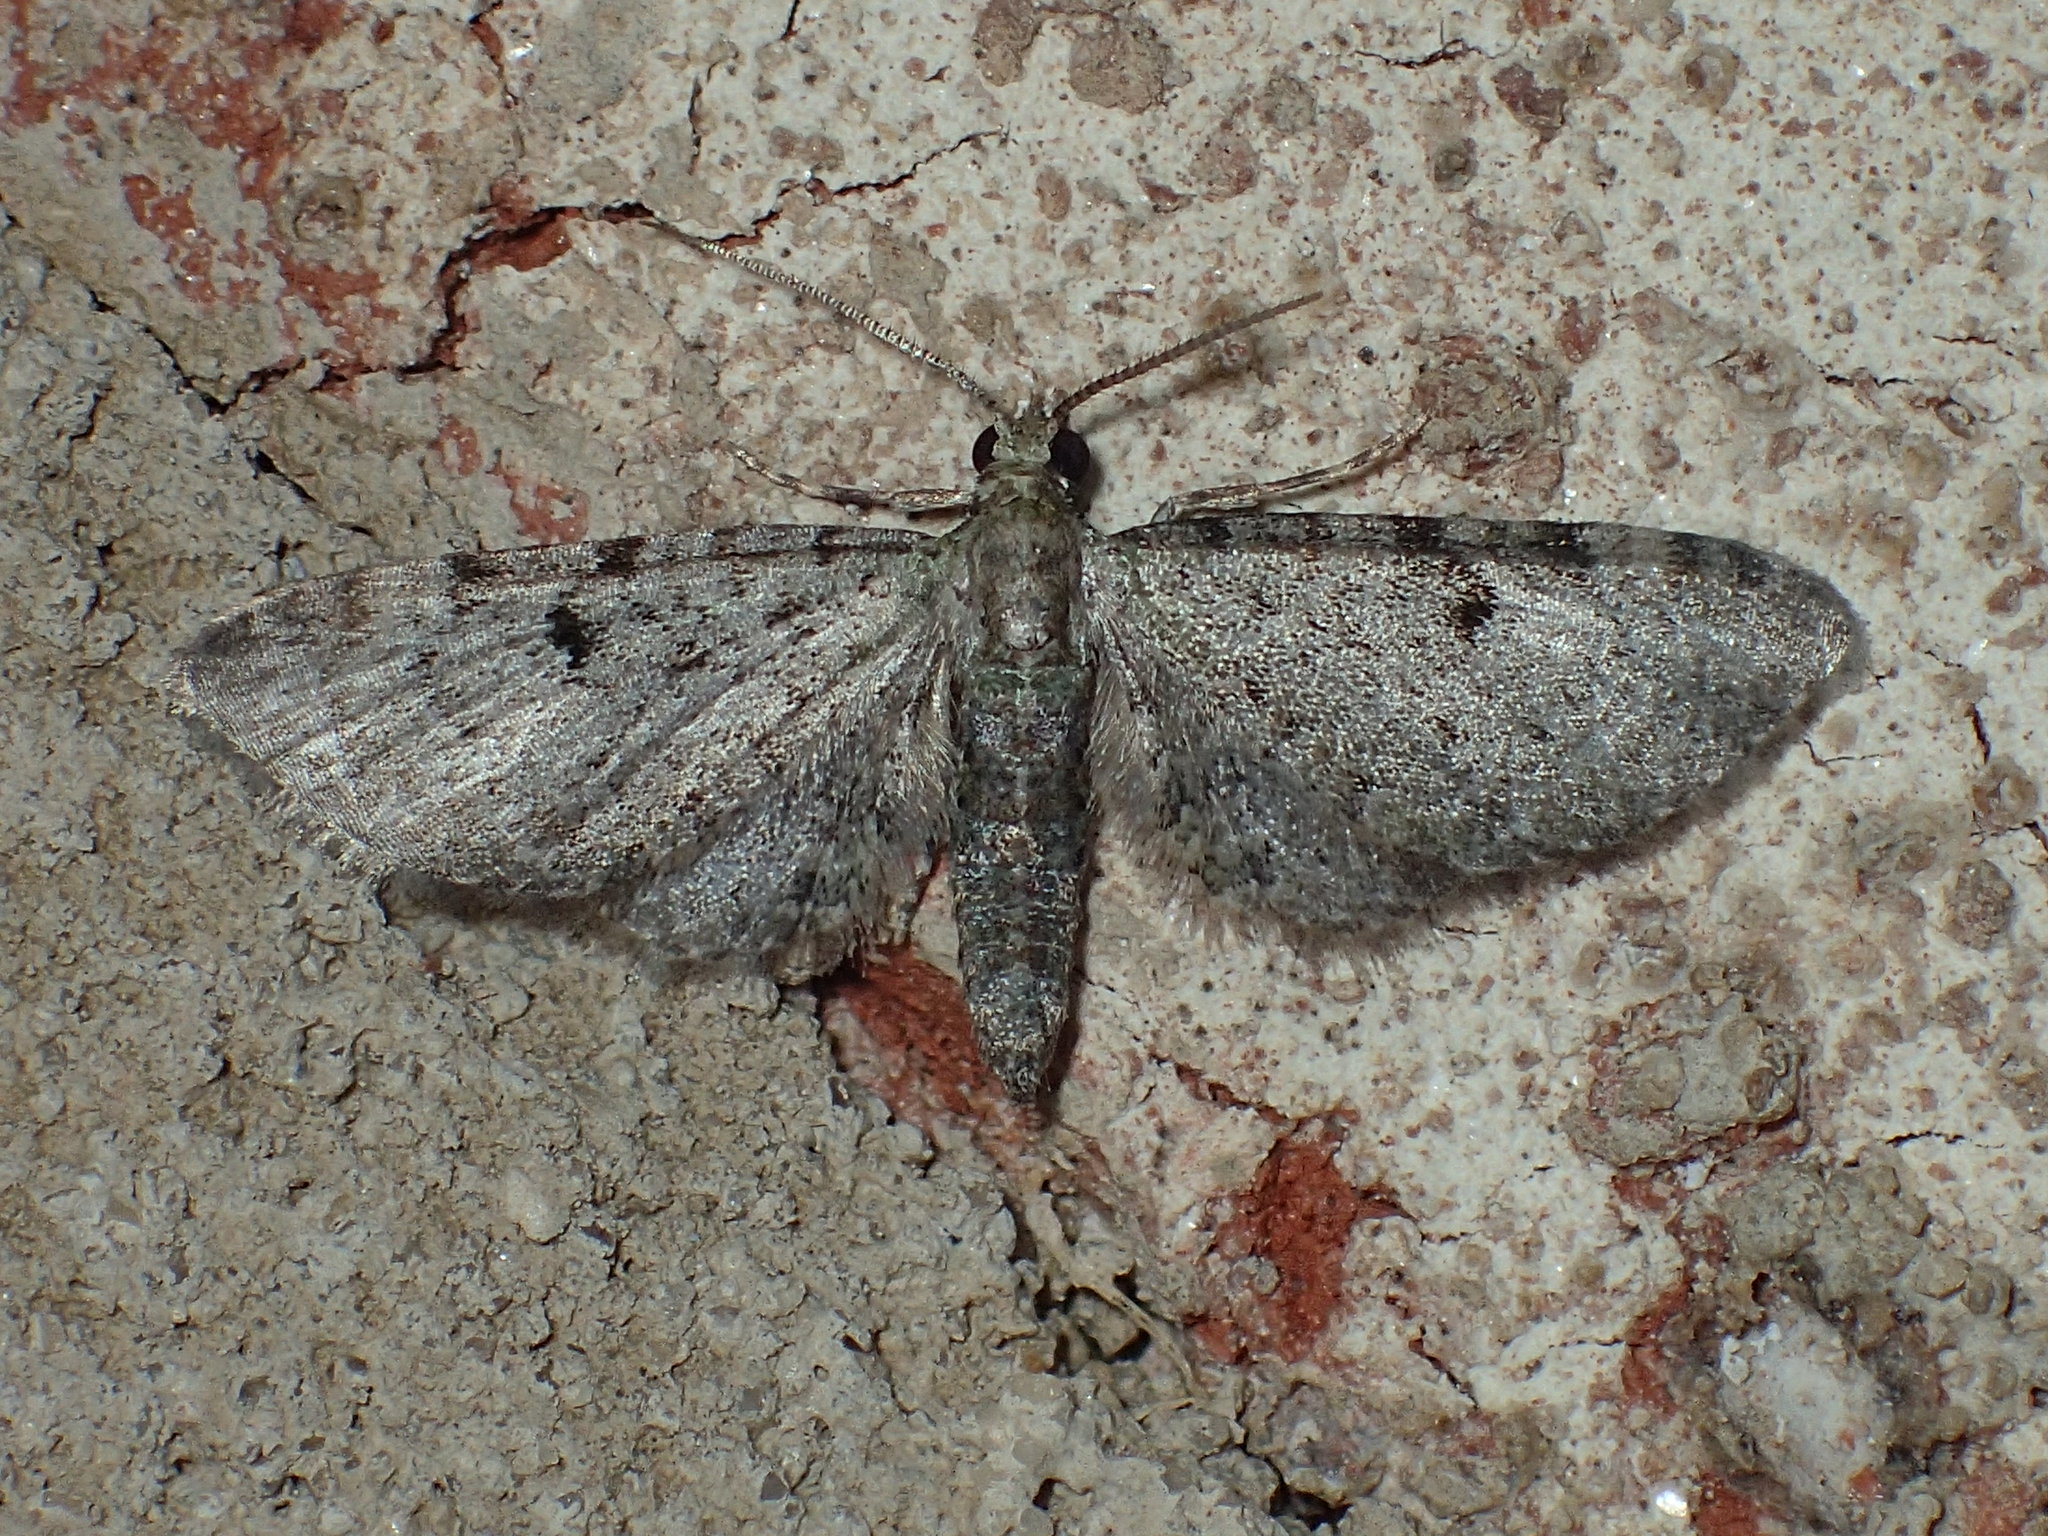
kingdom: Animalia
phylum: Arthropoda
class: Insecta
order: Lepidoptera
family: Geometridae
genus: Eupithecia
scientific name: Eupithecia miserulata
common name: Common eupithecia
